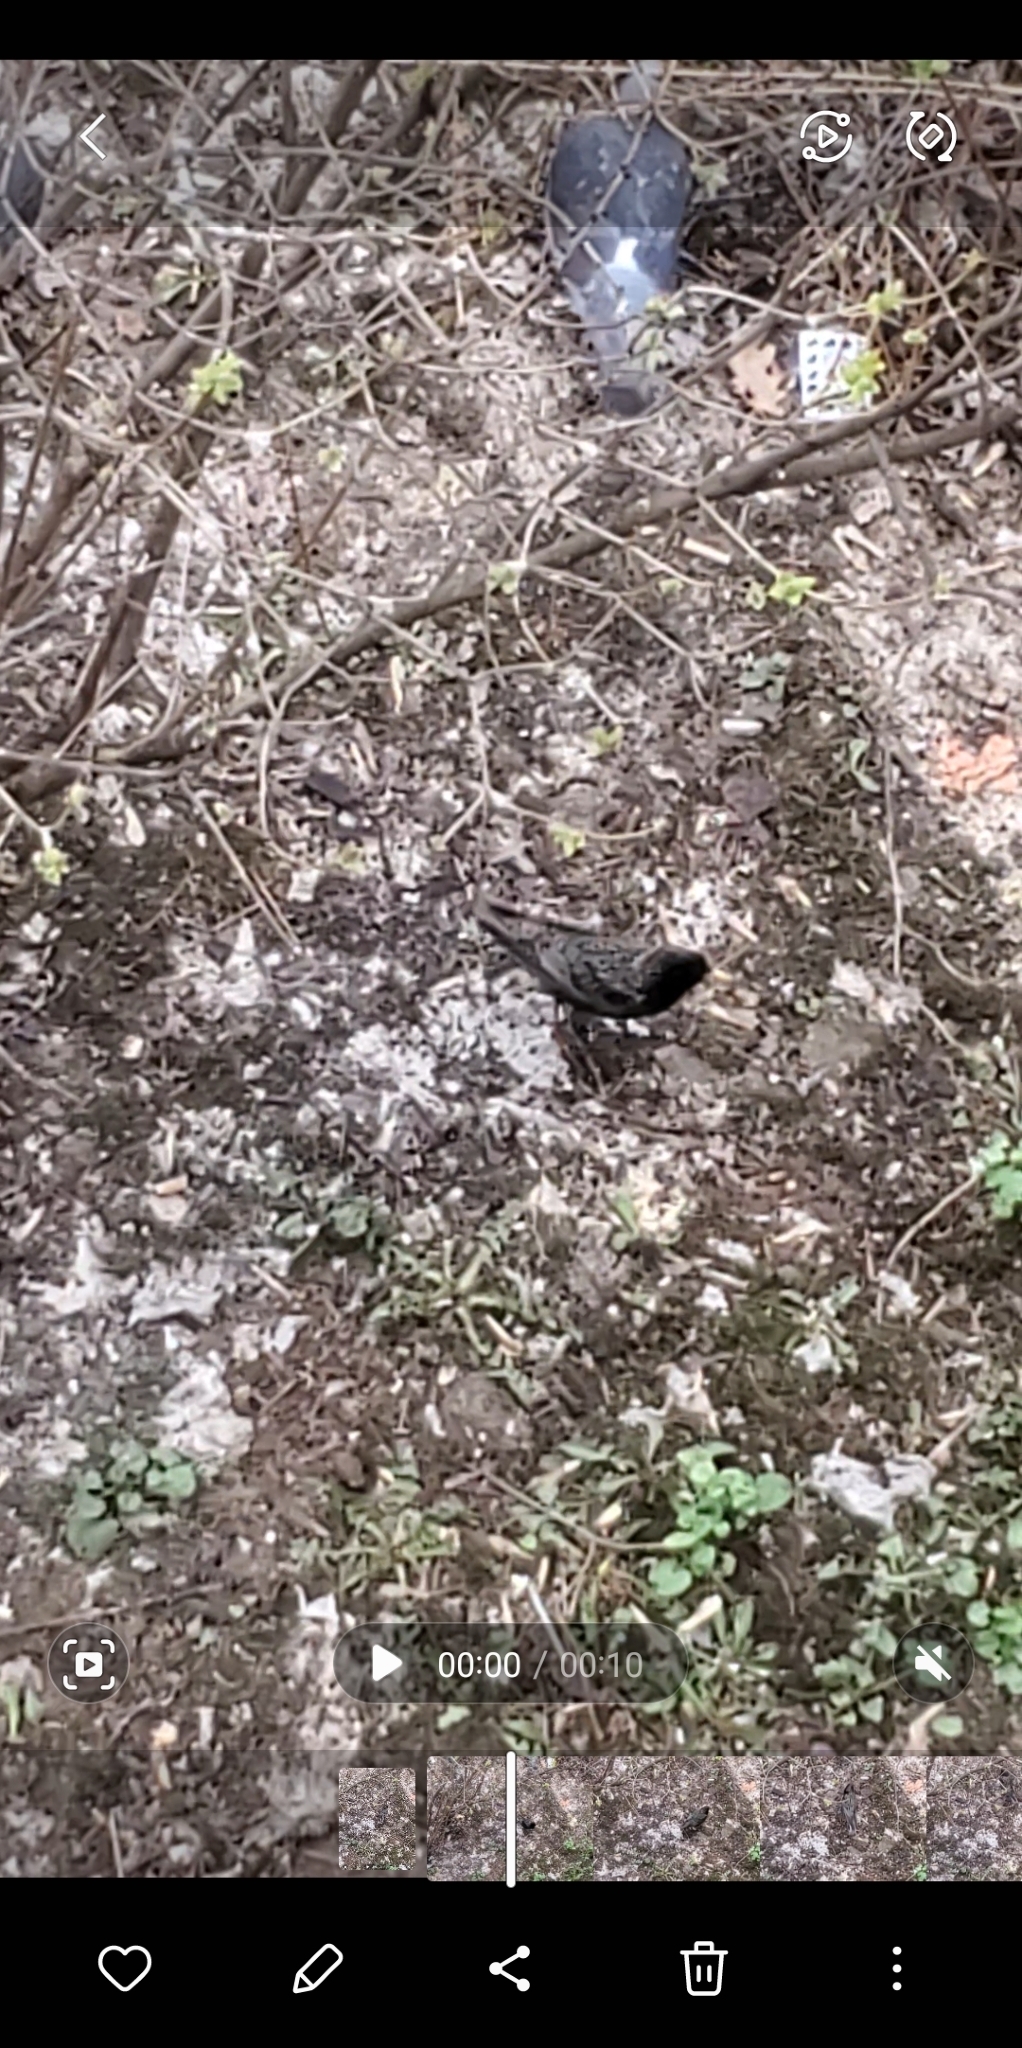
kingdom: Animalia
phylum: Chordata
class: Aves
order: Passeriformes
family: Sturnidae
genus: Sturnus
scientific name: Sturnus vulgaris
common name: Common starling
